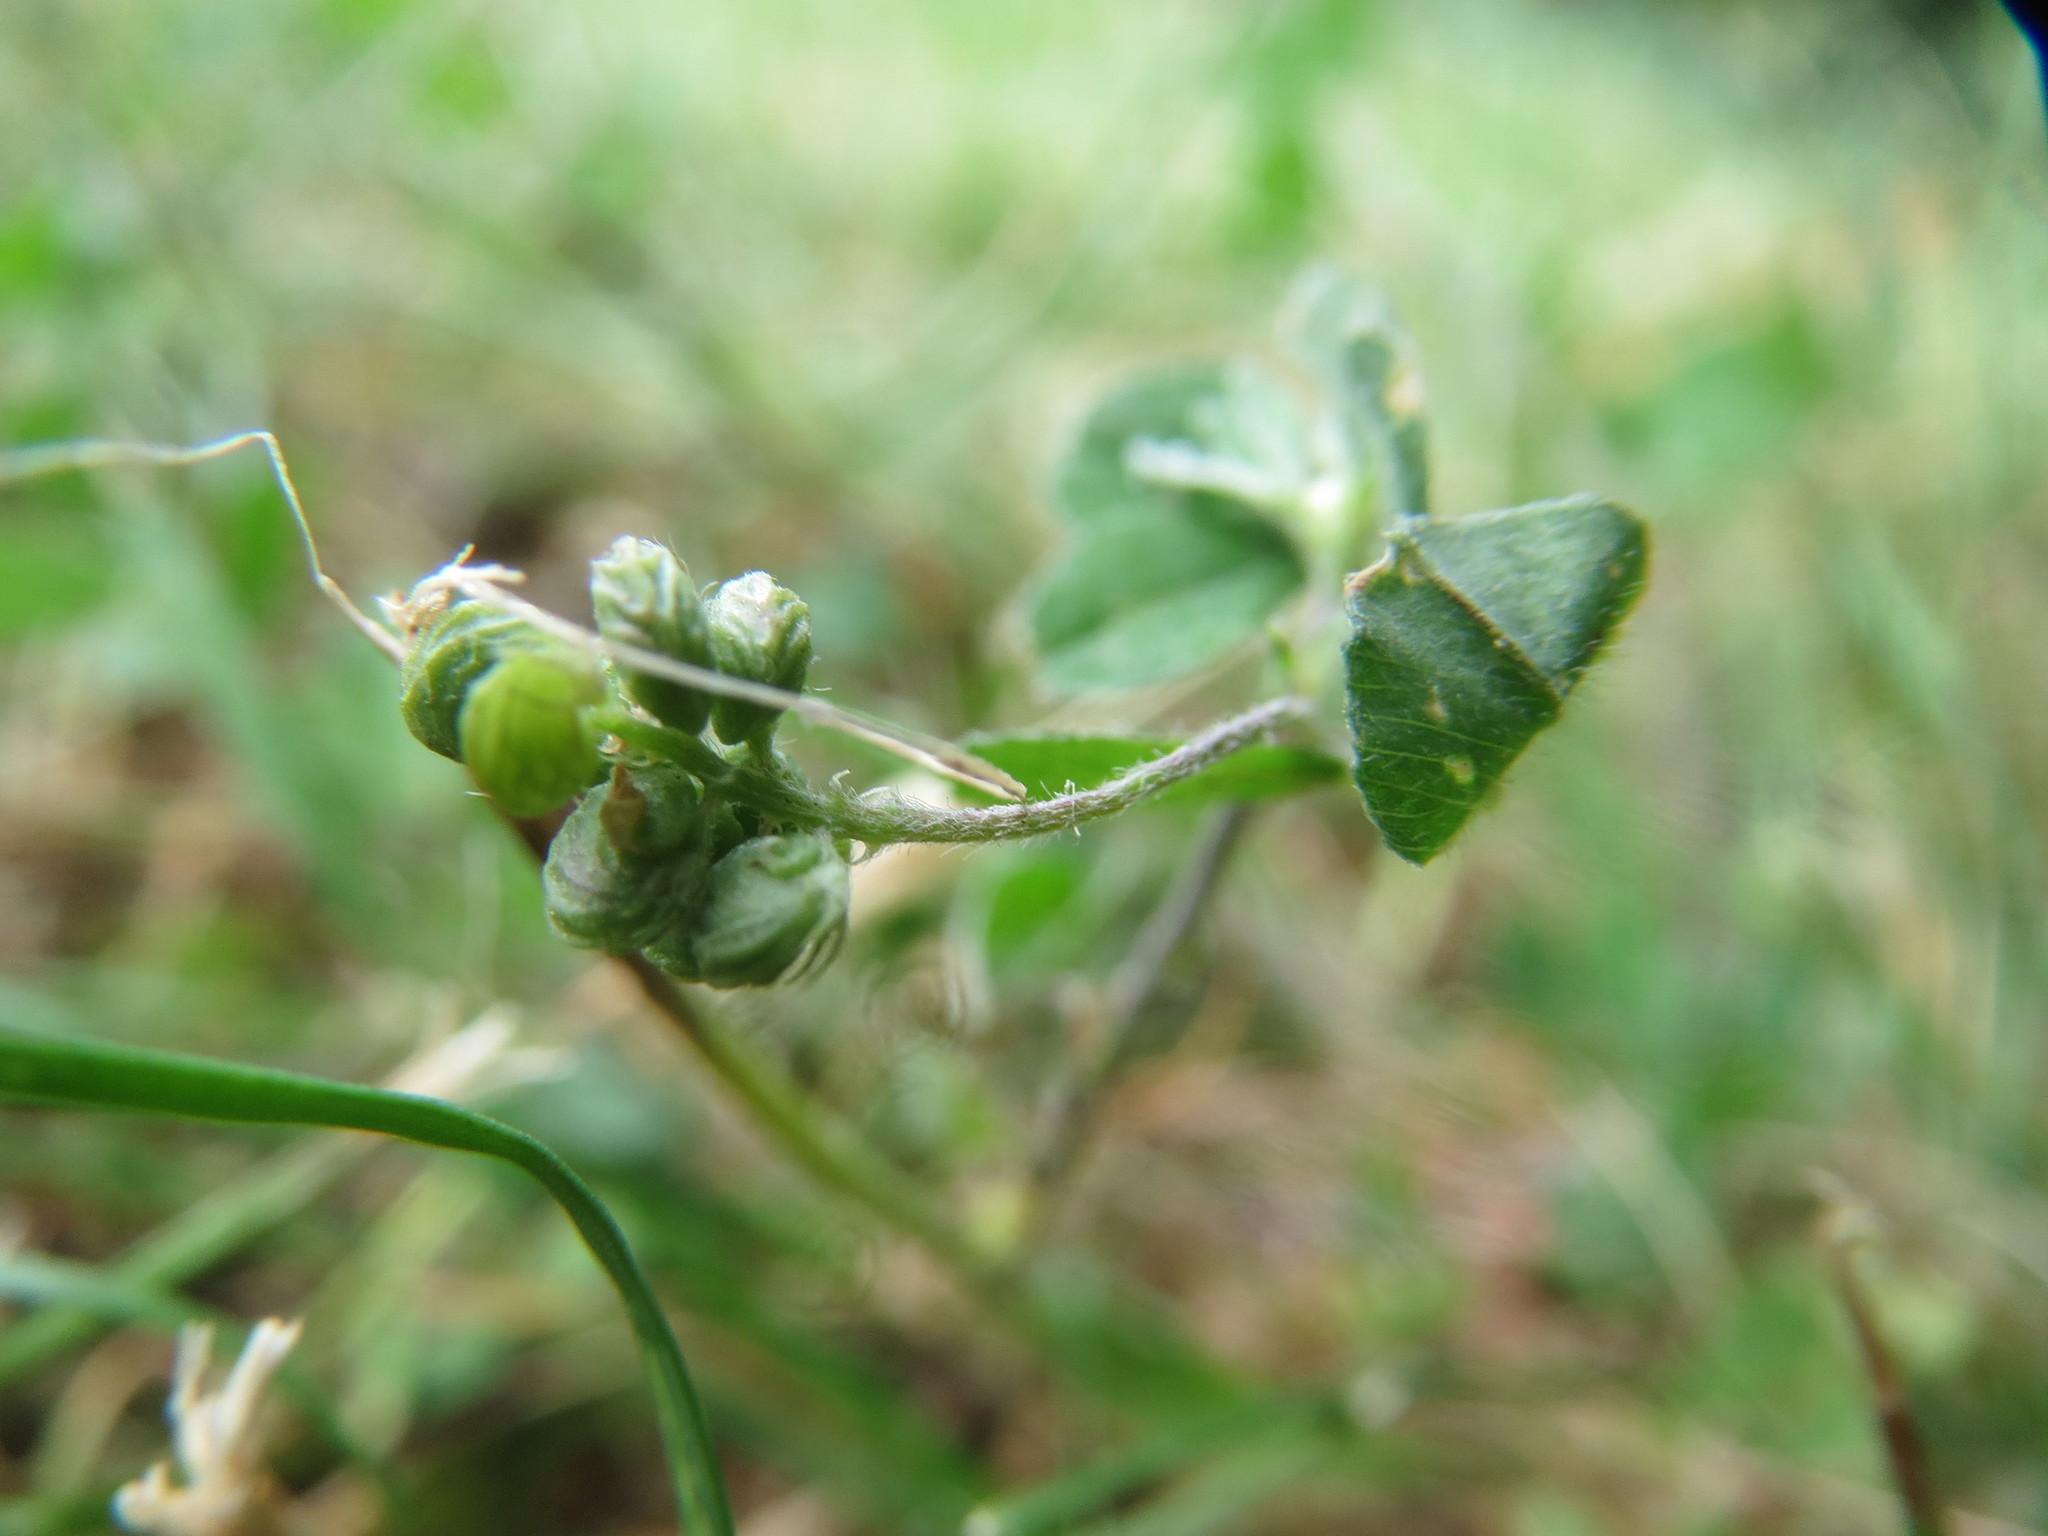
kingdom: Plantae
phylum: Tracheophyta
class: Magnoliopsida
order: Fabales
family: Fabaceae
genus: Medicago
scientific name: Medicago lupulina
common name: Black medick
